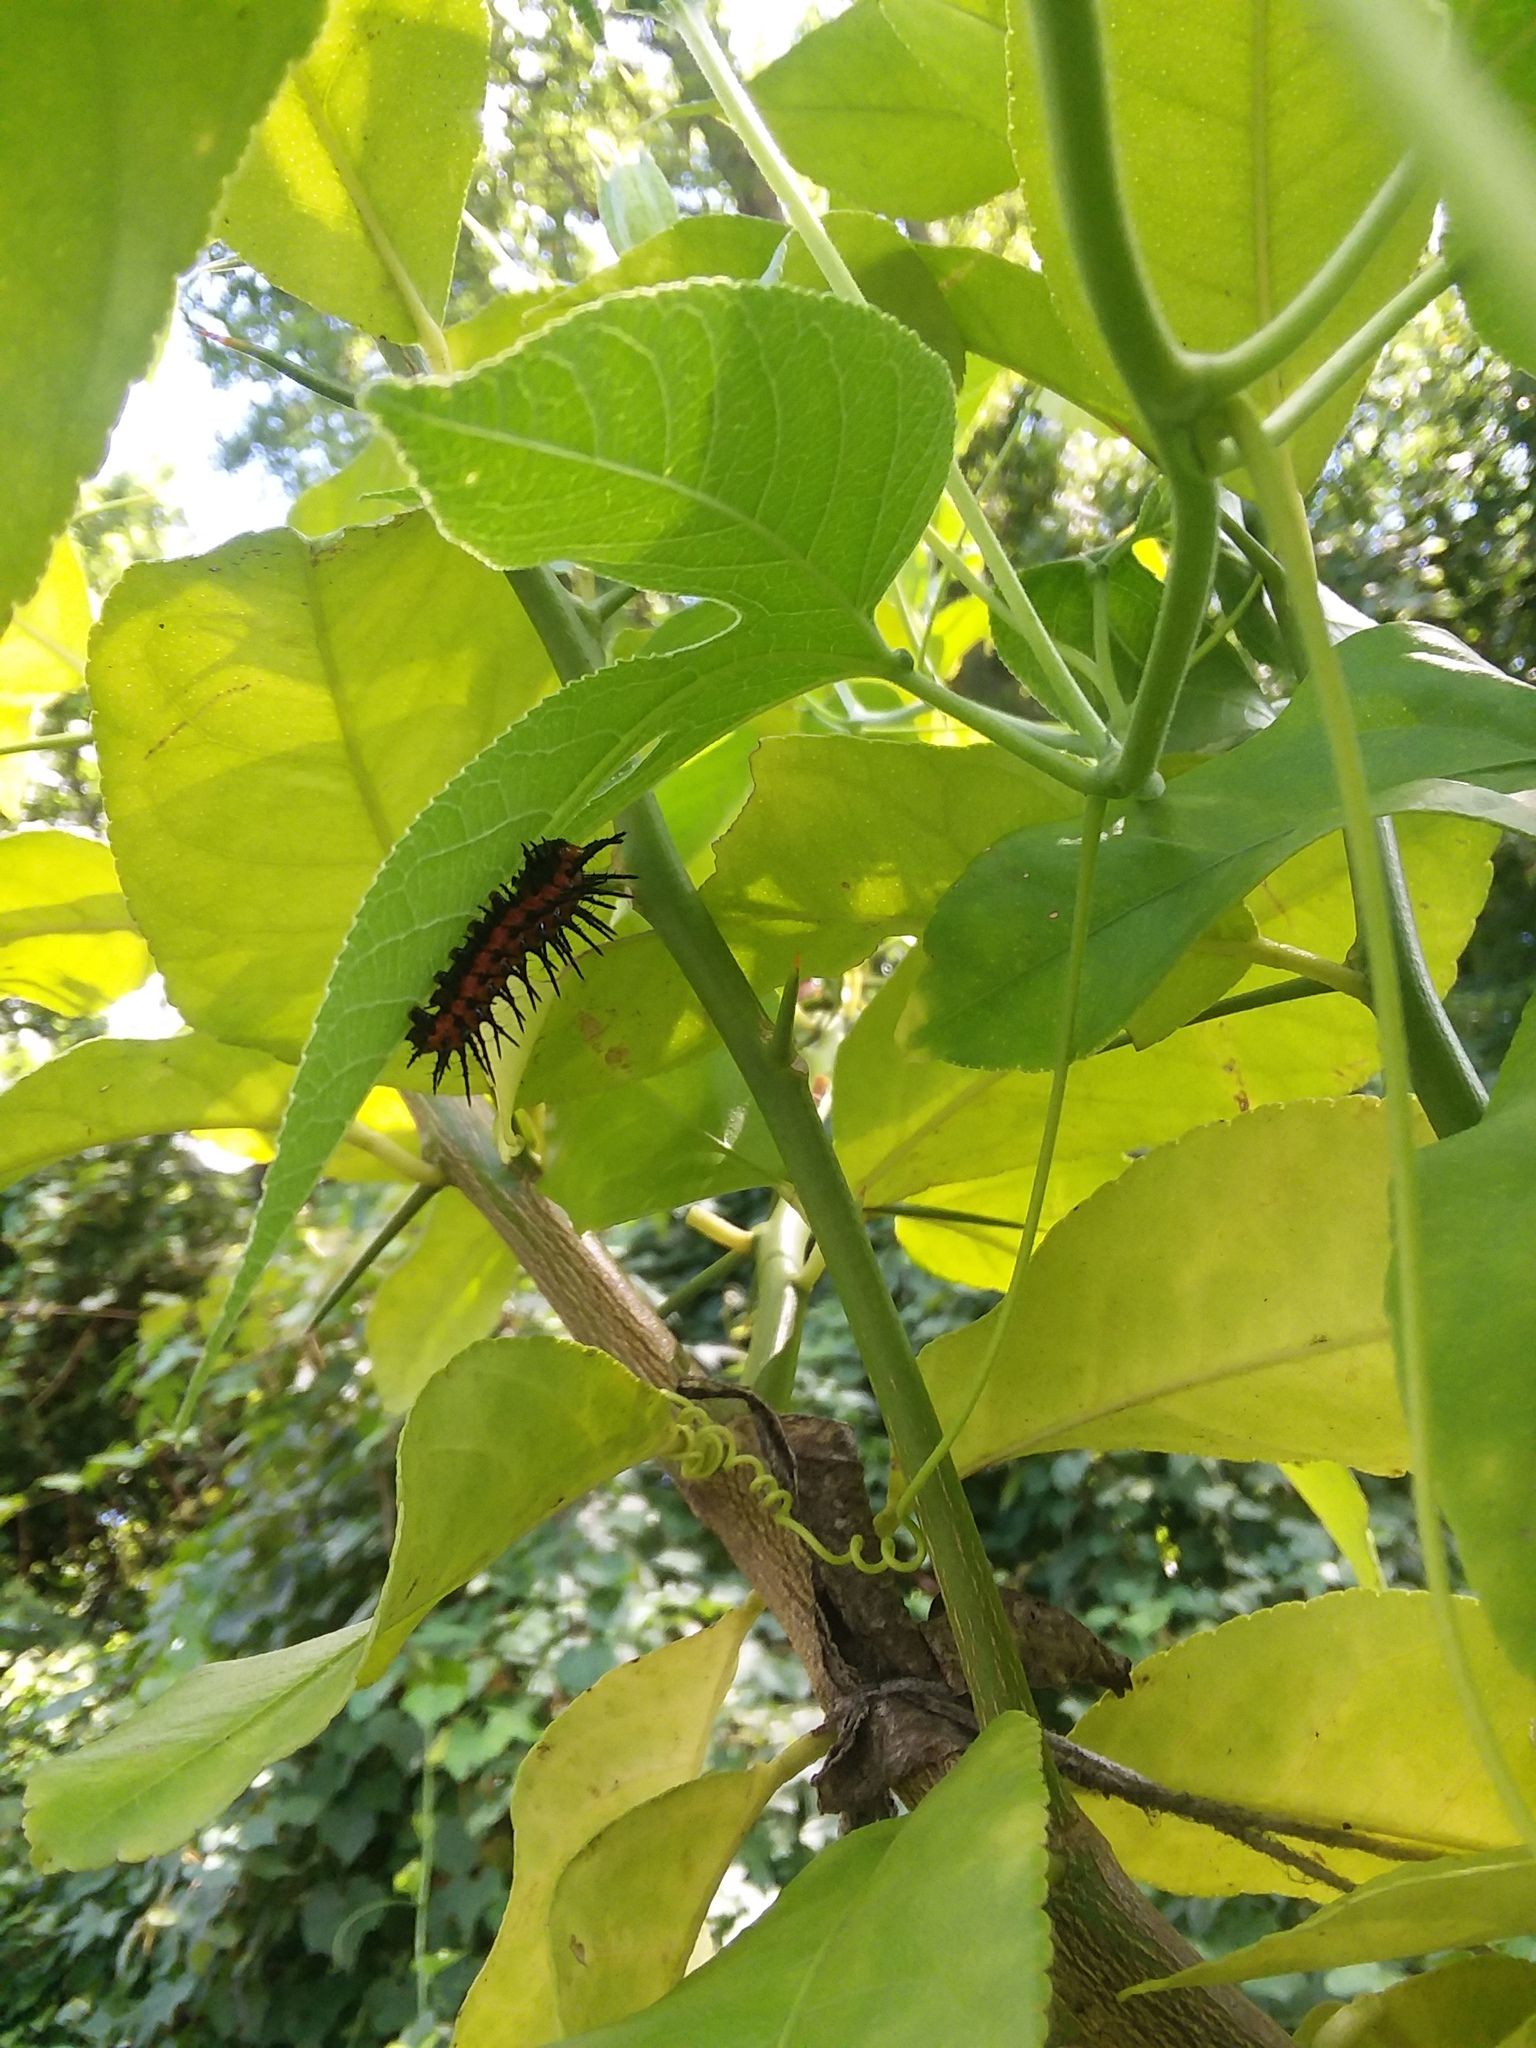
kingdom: Animalia
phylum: Arthropoda
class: Insecta
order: Lepidoptera
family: Nymphalidae
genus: Dione
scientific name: Dione vanillae
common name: Gulf fritillary
